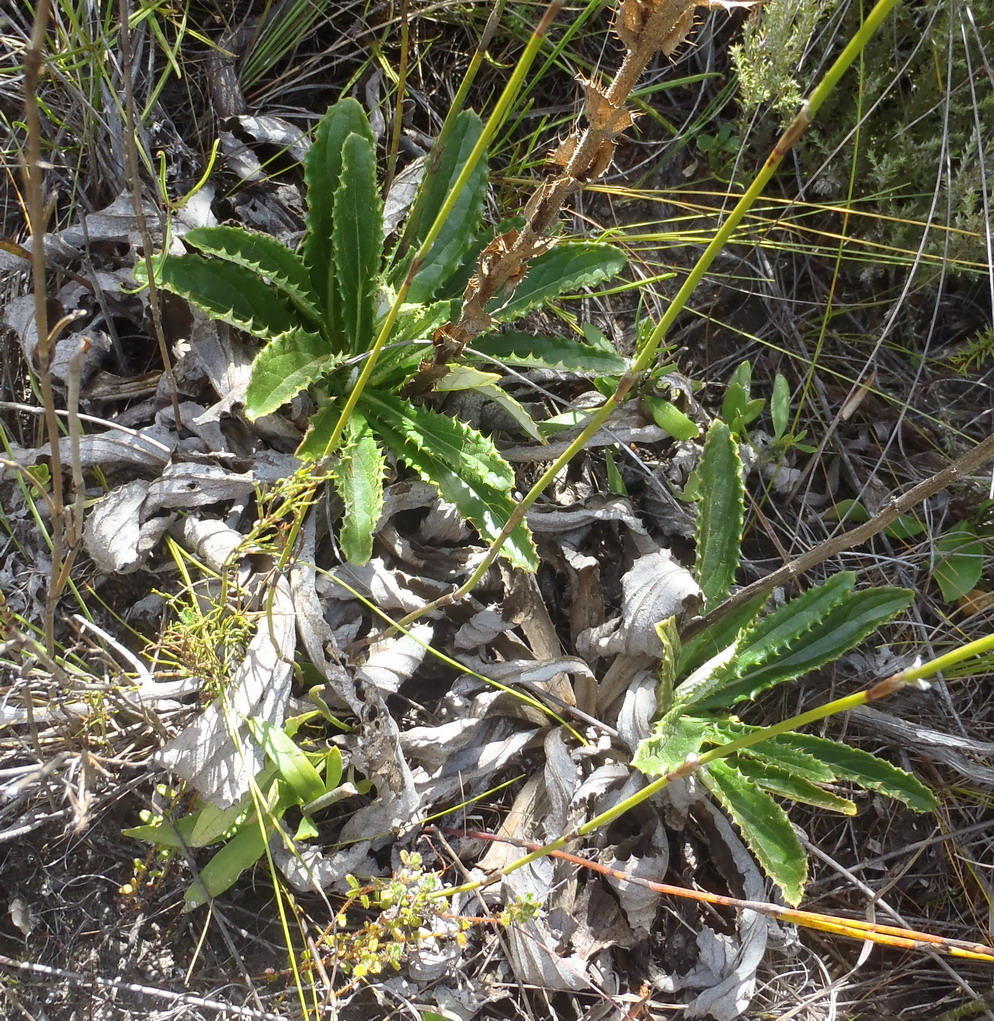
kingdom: Plantae
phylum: Tracheophyta
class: Magnoliopsida
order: Asterales
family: Asteraceae
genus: Berkheya
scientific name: Berkheya carlinoides
